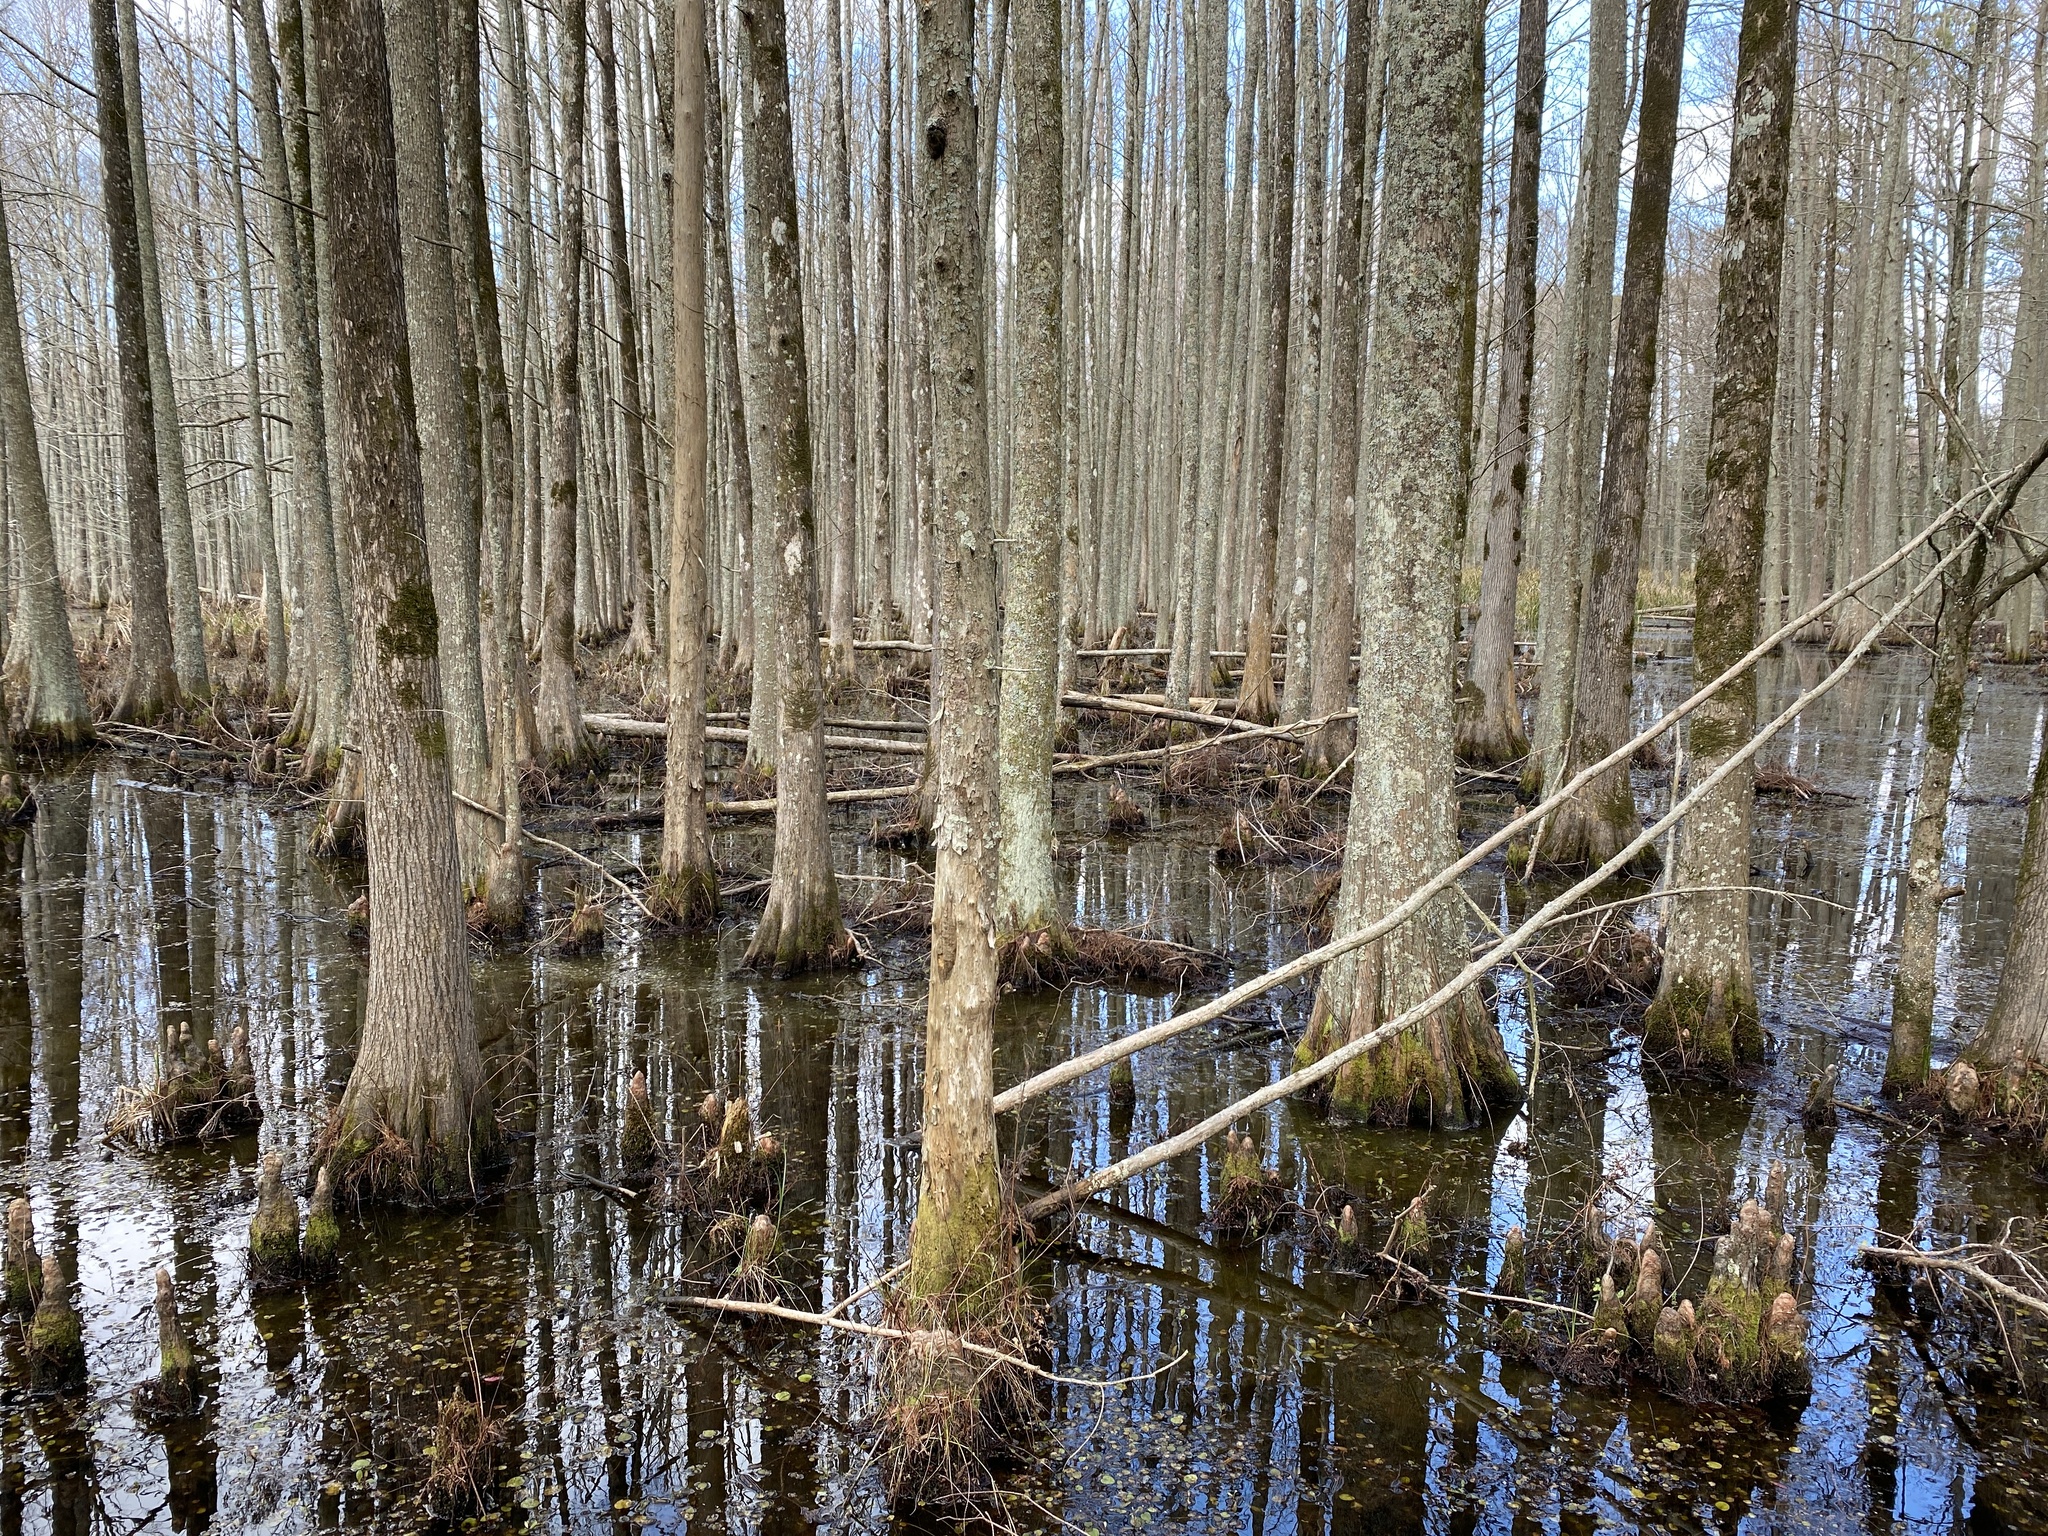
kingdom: Plantae
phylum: Tracheophyta
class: Pinopsida
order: Pinales
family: Cupressaceae
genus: Taxodium
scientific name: Taxodium distichum
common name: Bald cypress
